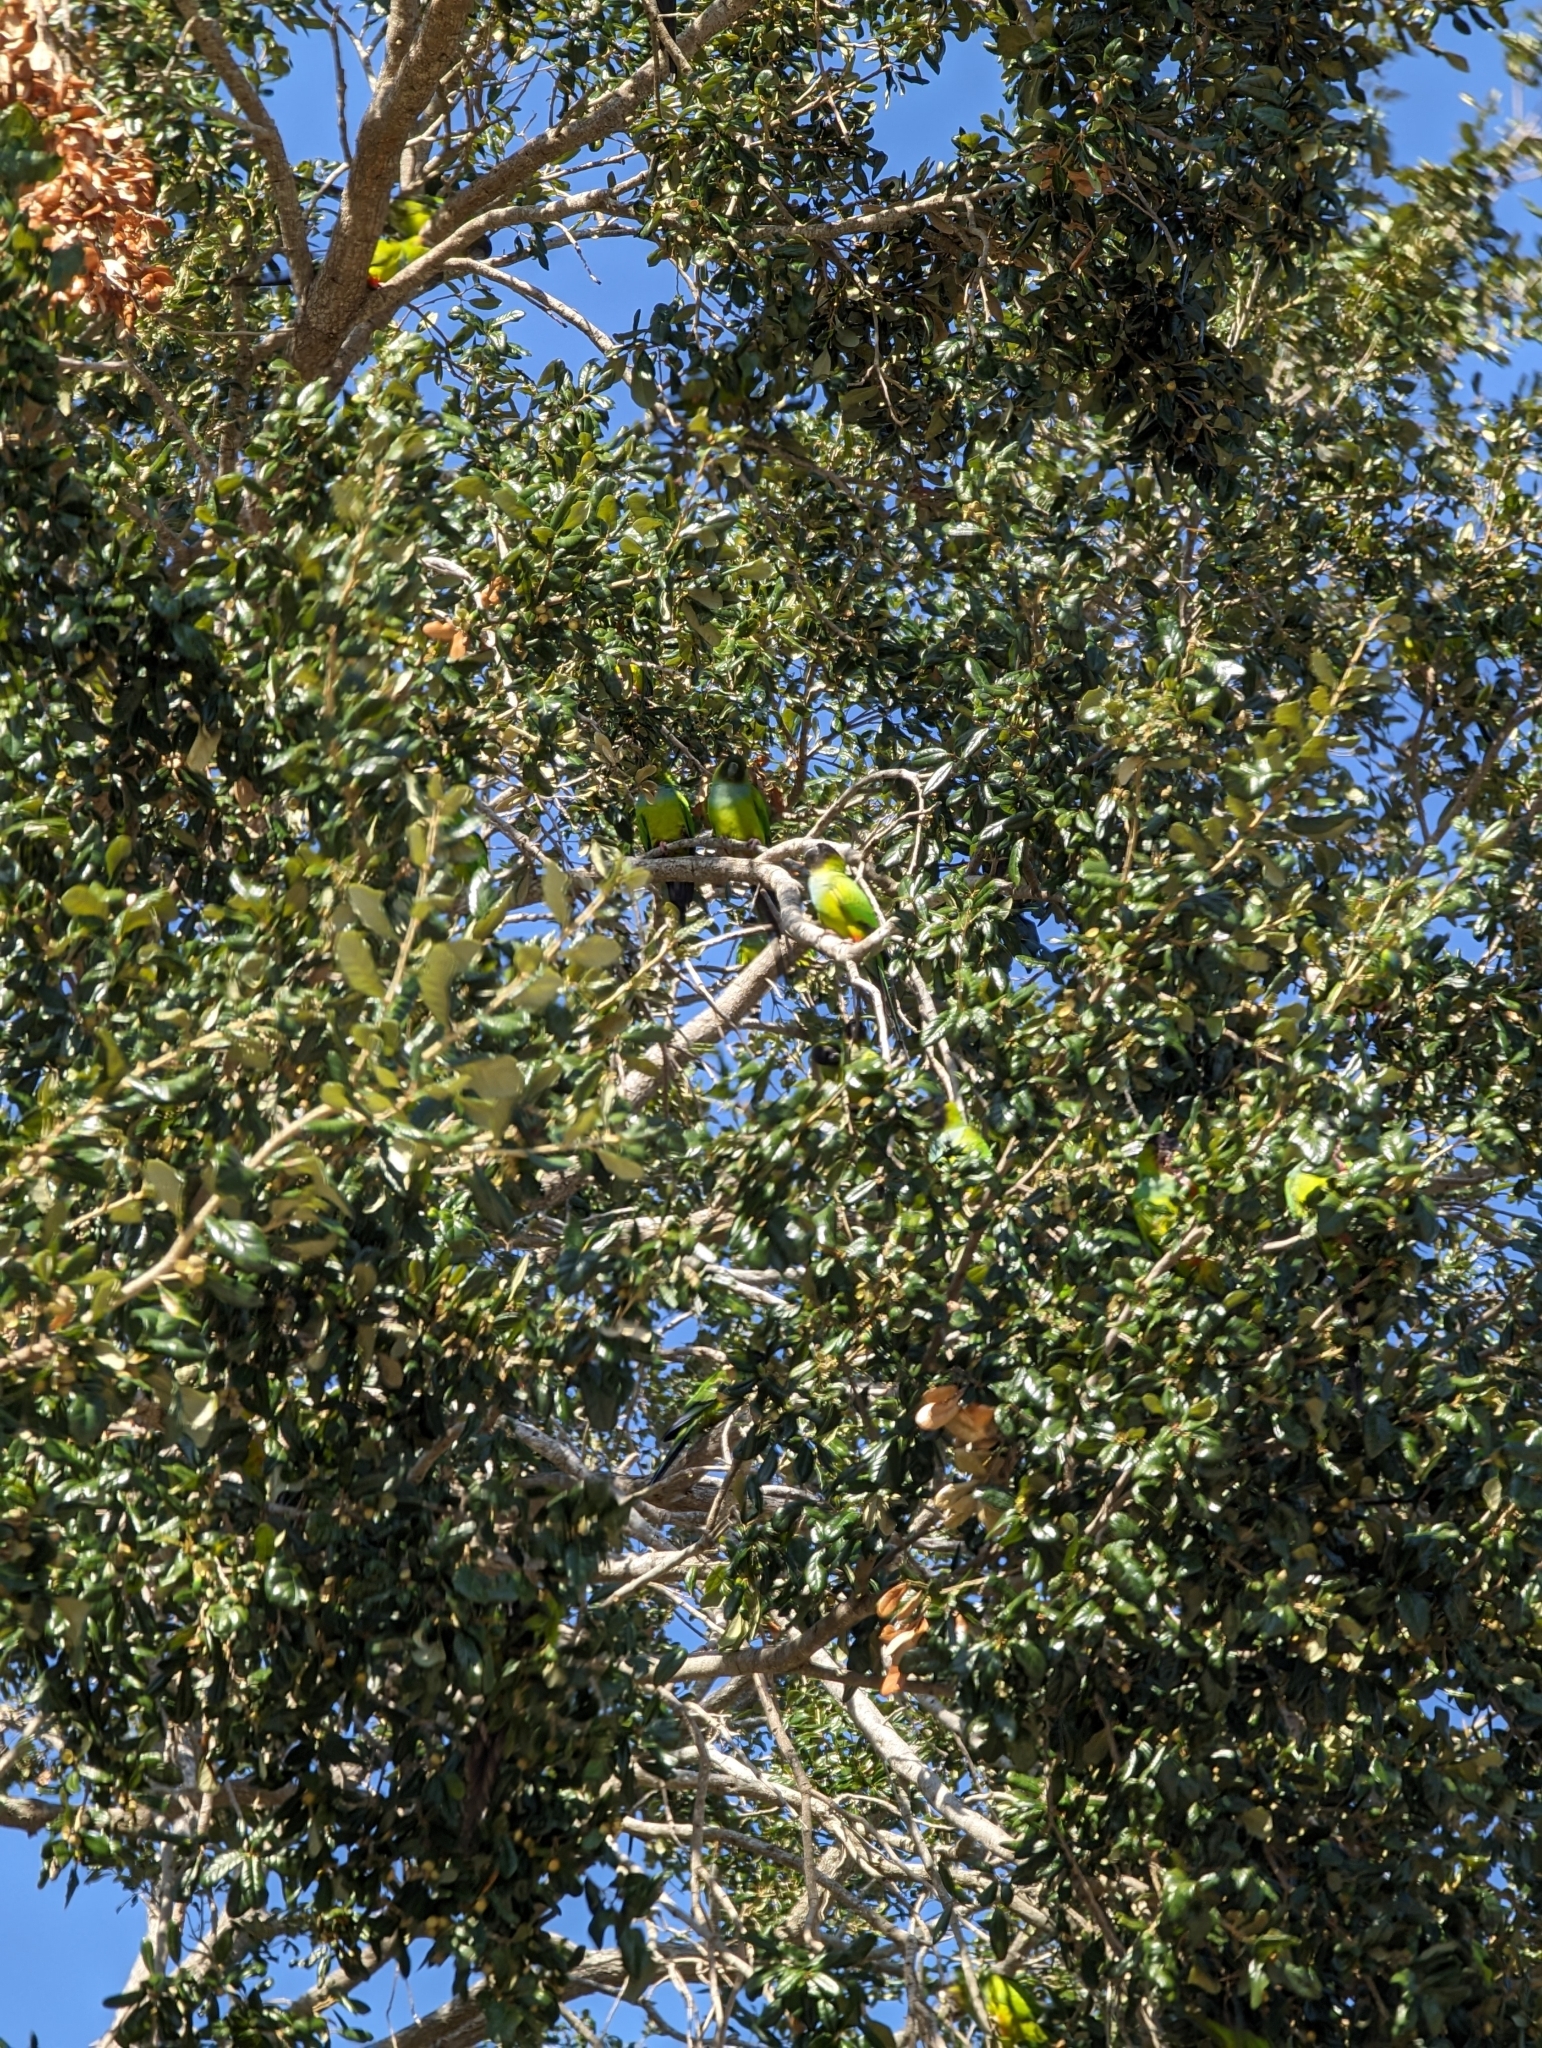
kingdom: Animalia
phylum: Chordata
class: Aves
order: Psittaciformes
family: Psittacidae
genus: Nandayus
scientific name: Nandayus nenday
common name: Nanday parakeet
